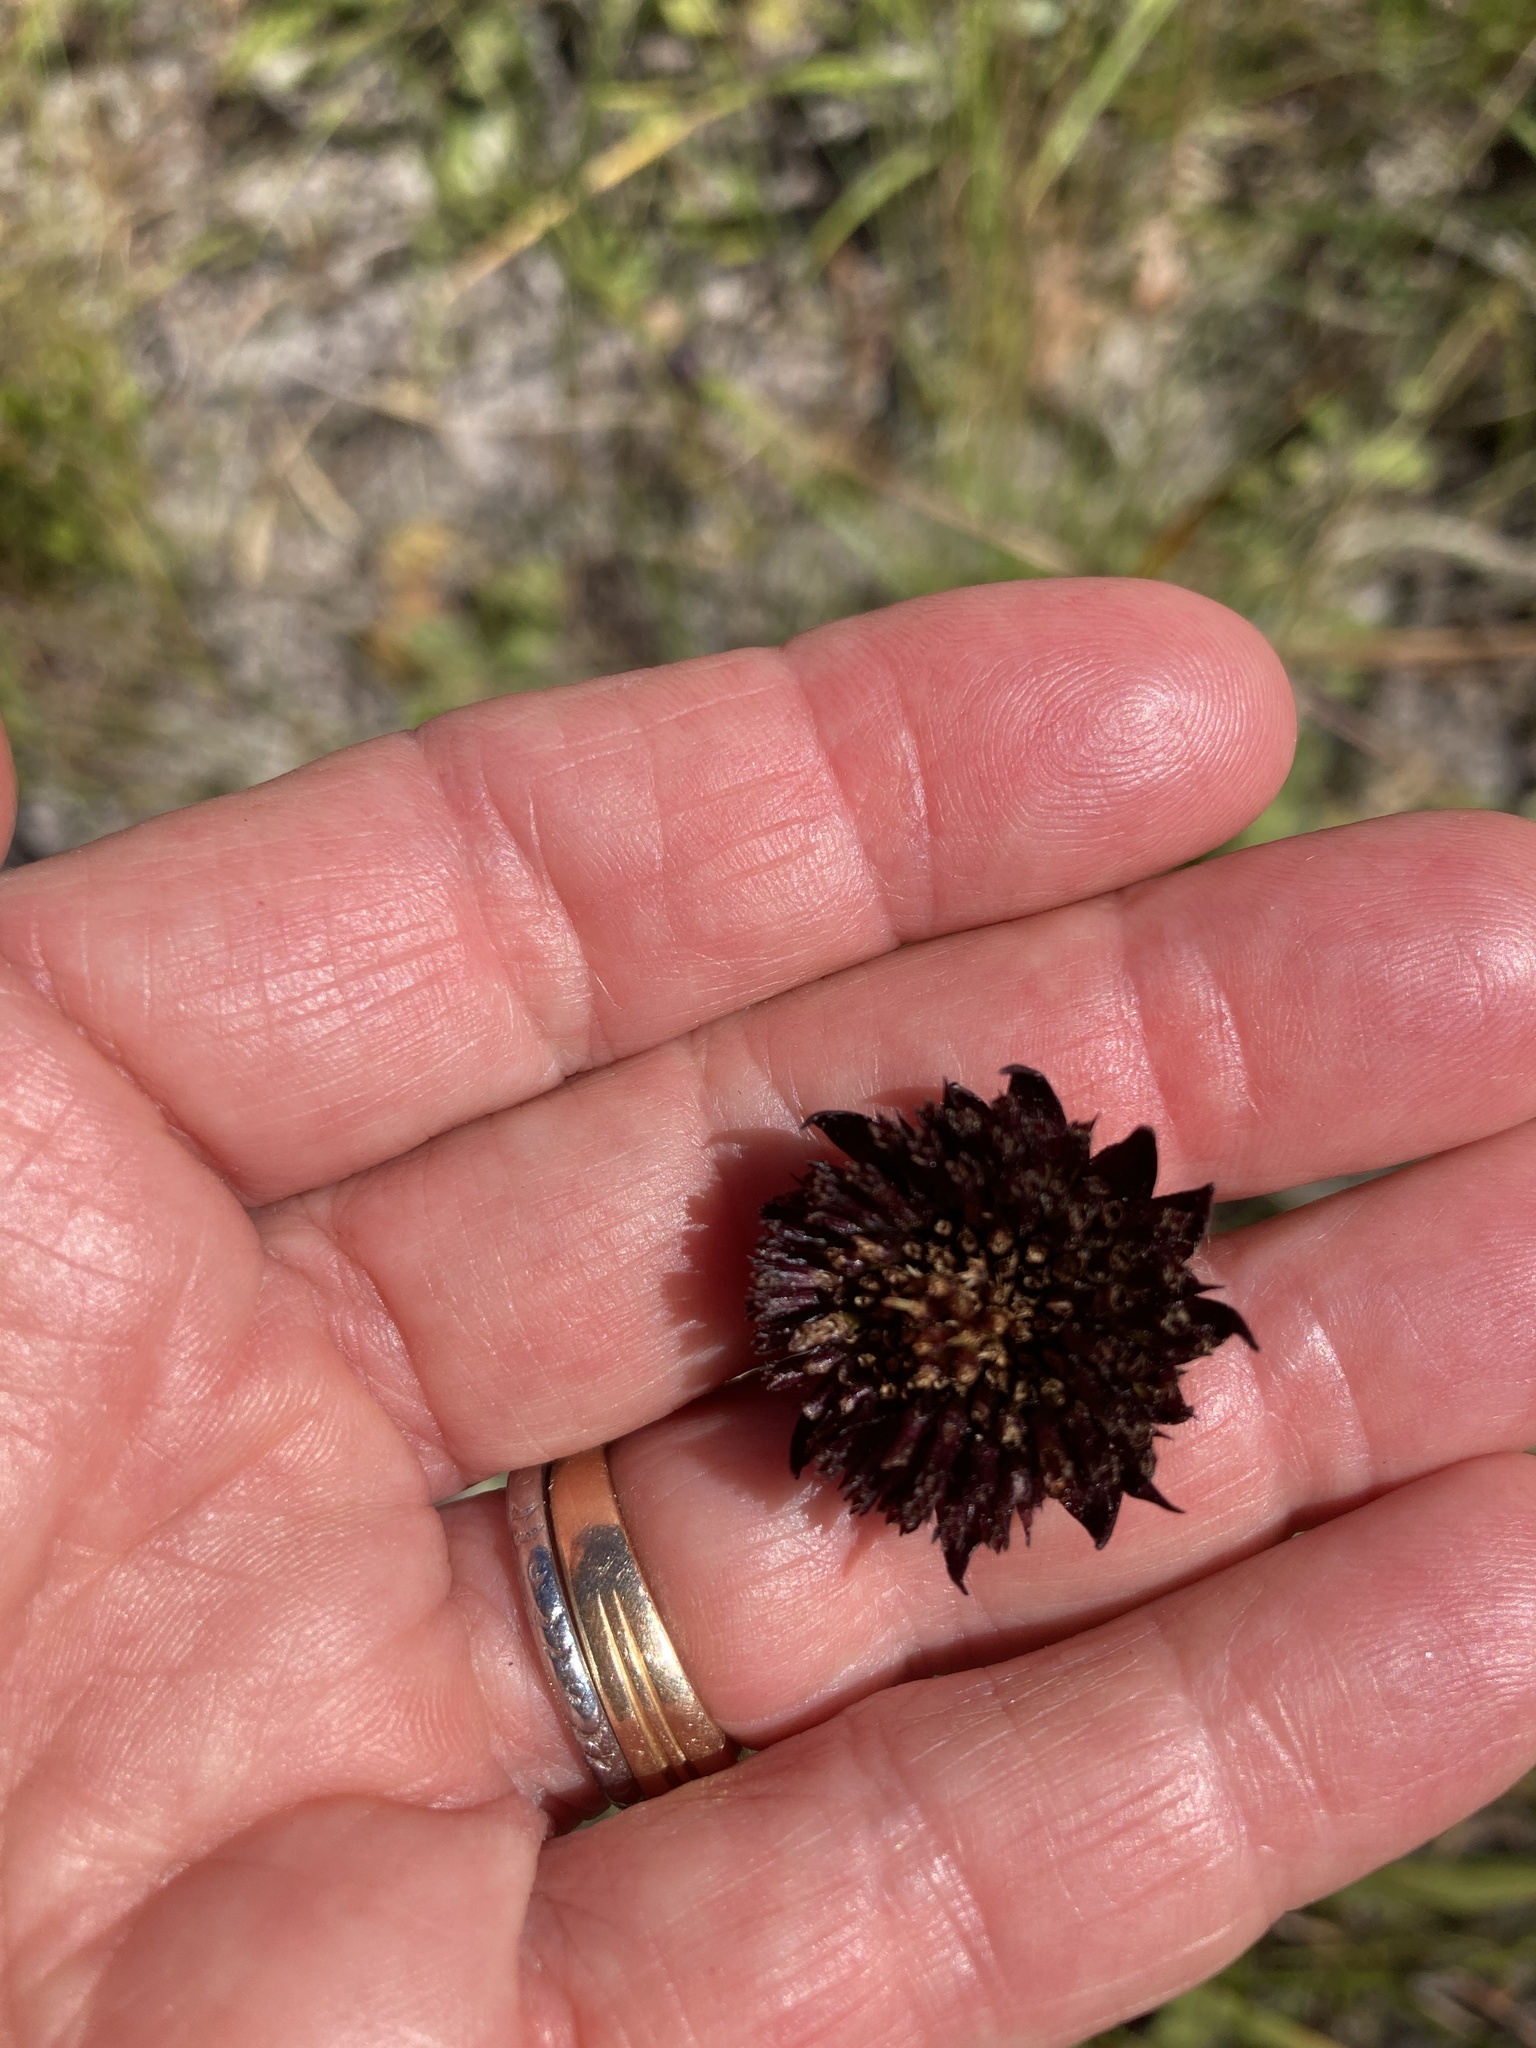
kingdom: Plantae
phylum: Tracheophyta
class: Magnoliopsida
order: Asterales
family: Asteraceae
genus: Helianthus
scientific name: Helianthus radula
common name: Pineland sunflower
